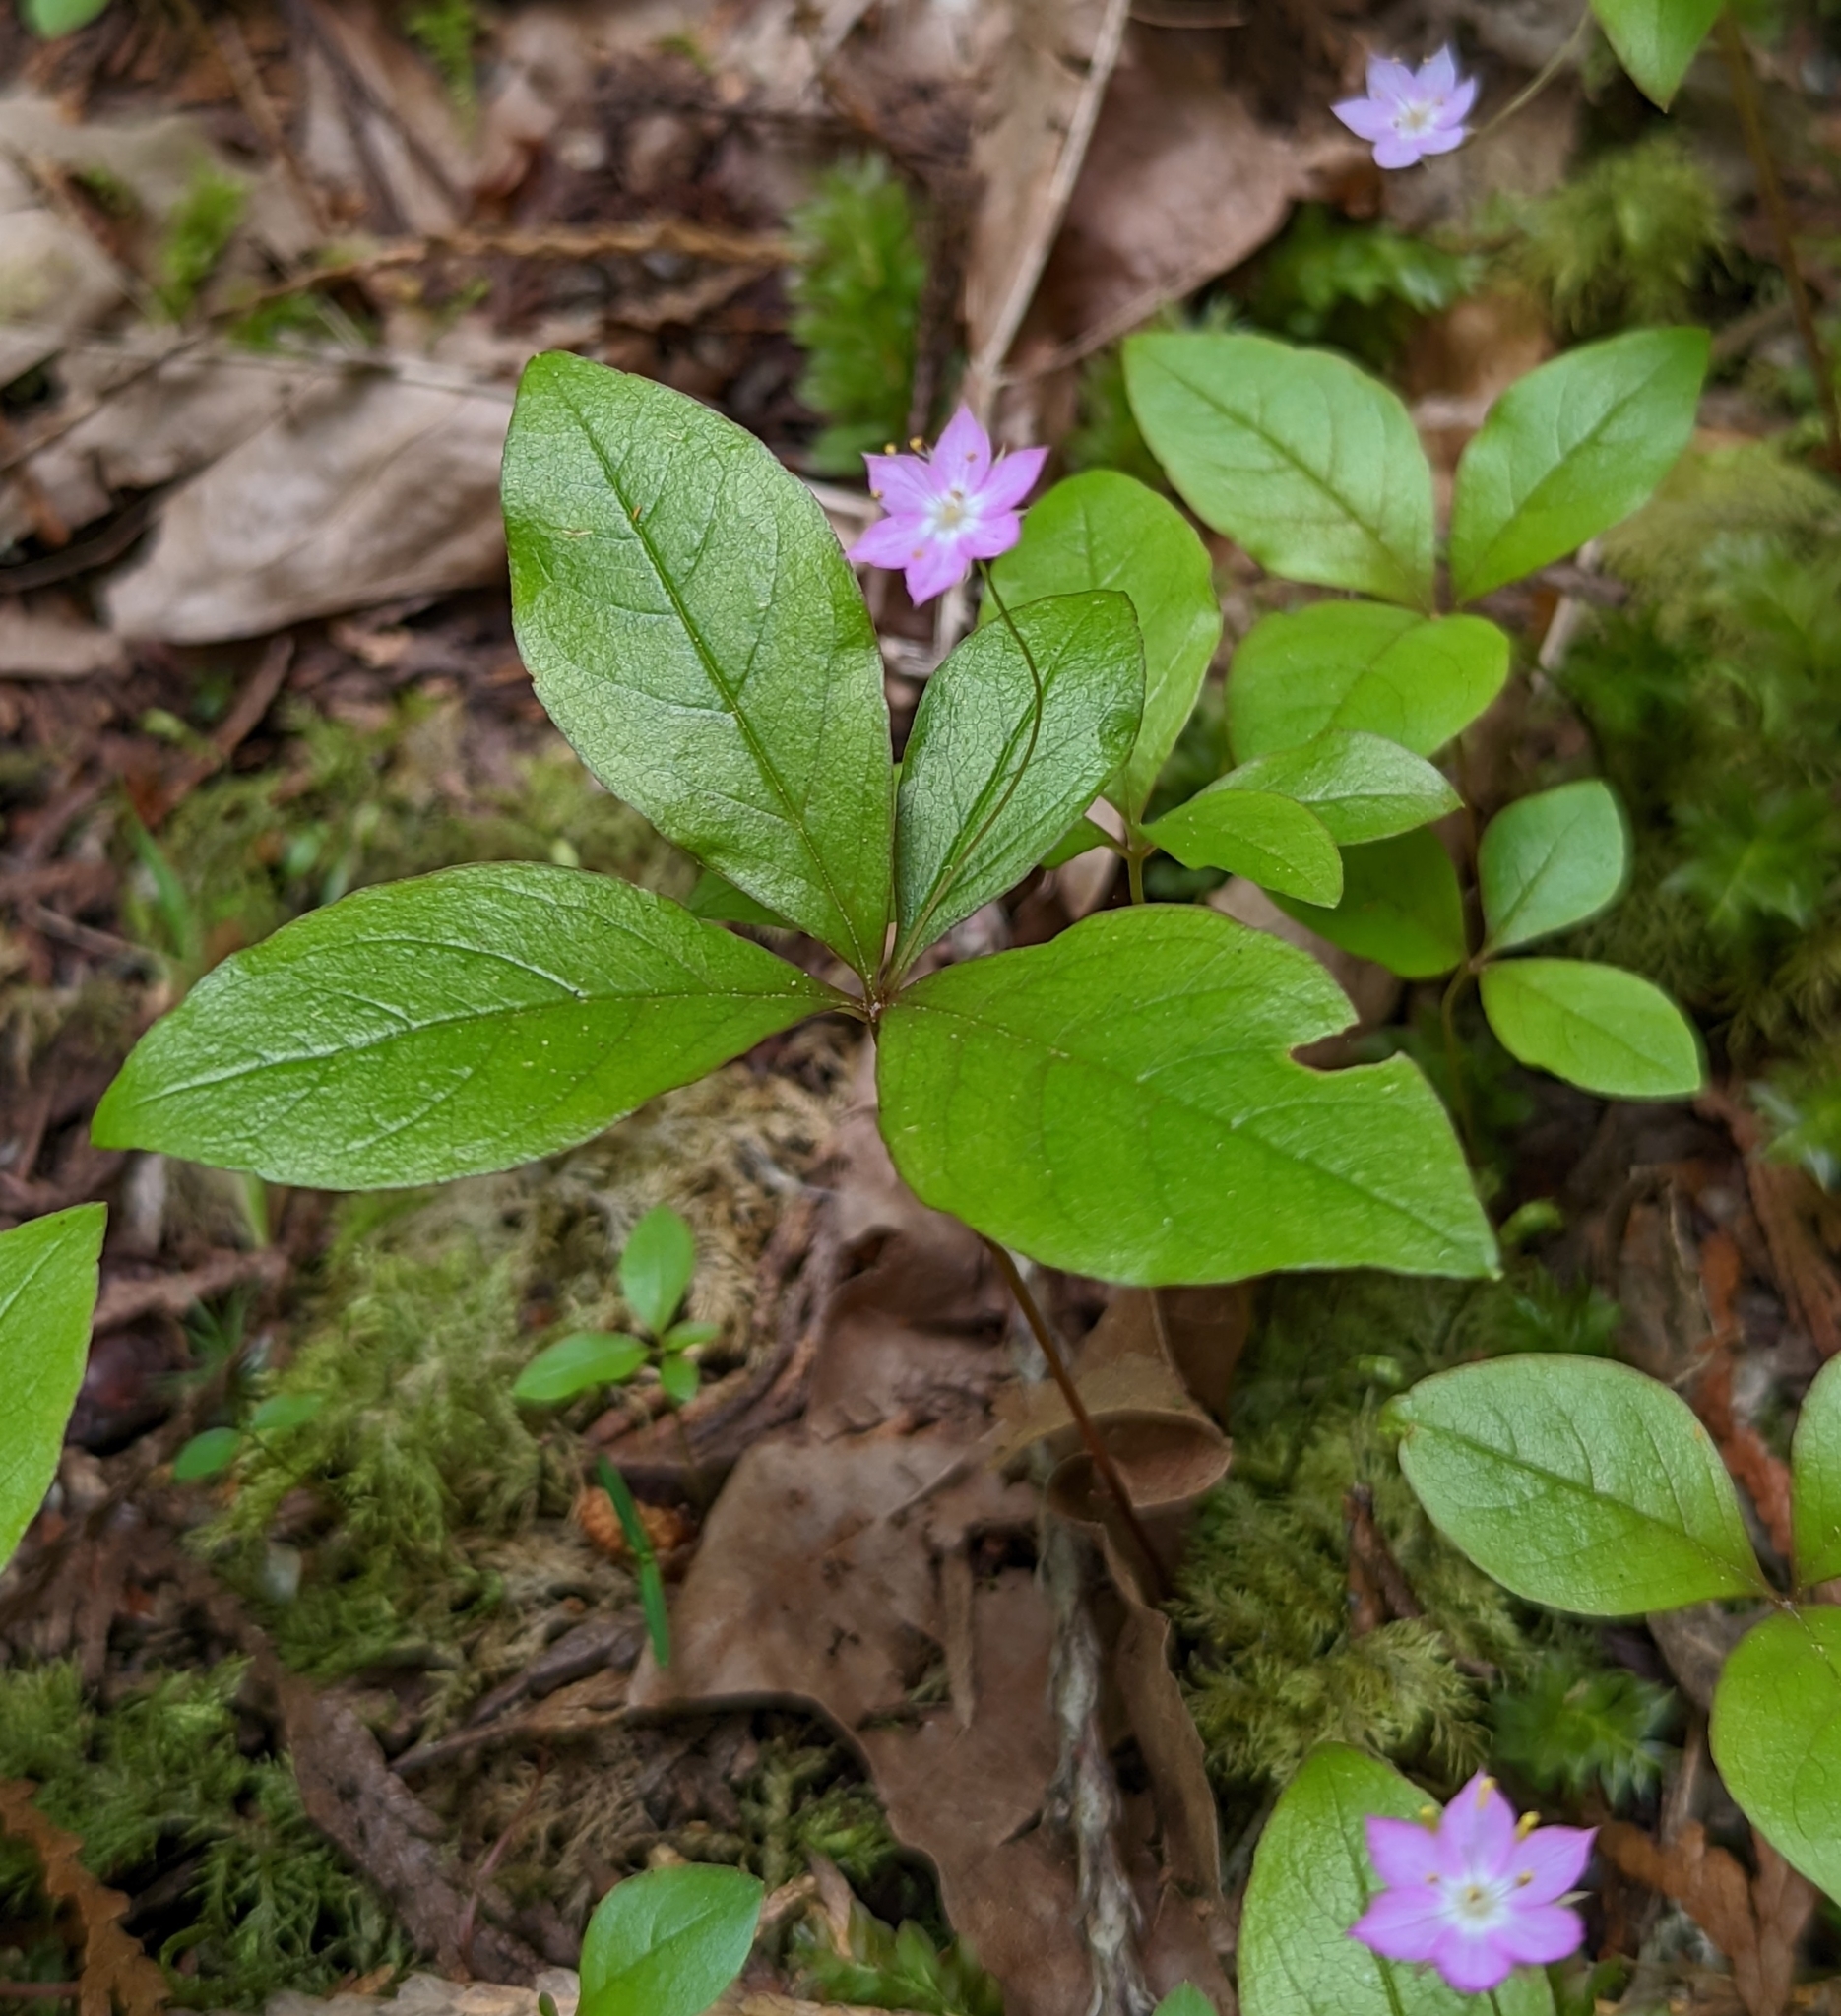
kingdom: Plantae
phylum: Tracheophyta
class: Magnoliopsida
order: Ericales
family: Primulaceae
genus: Lysimachia
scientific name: Lysimachia latifolia
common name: Pacific starflower
